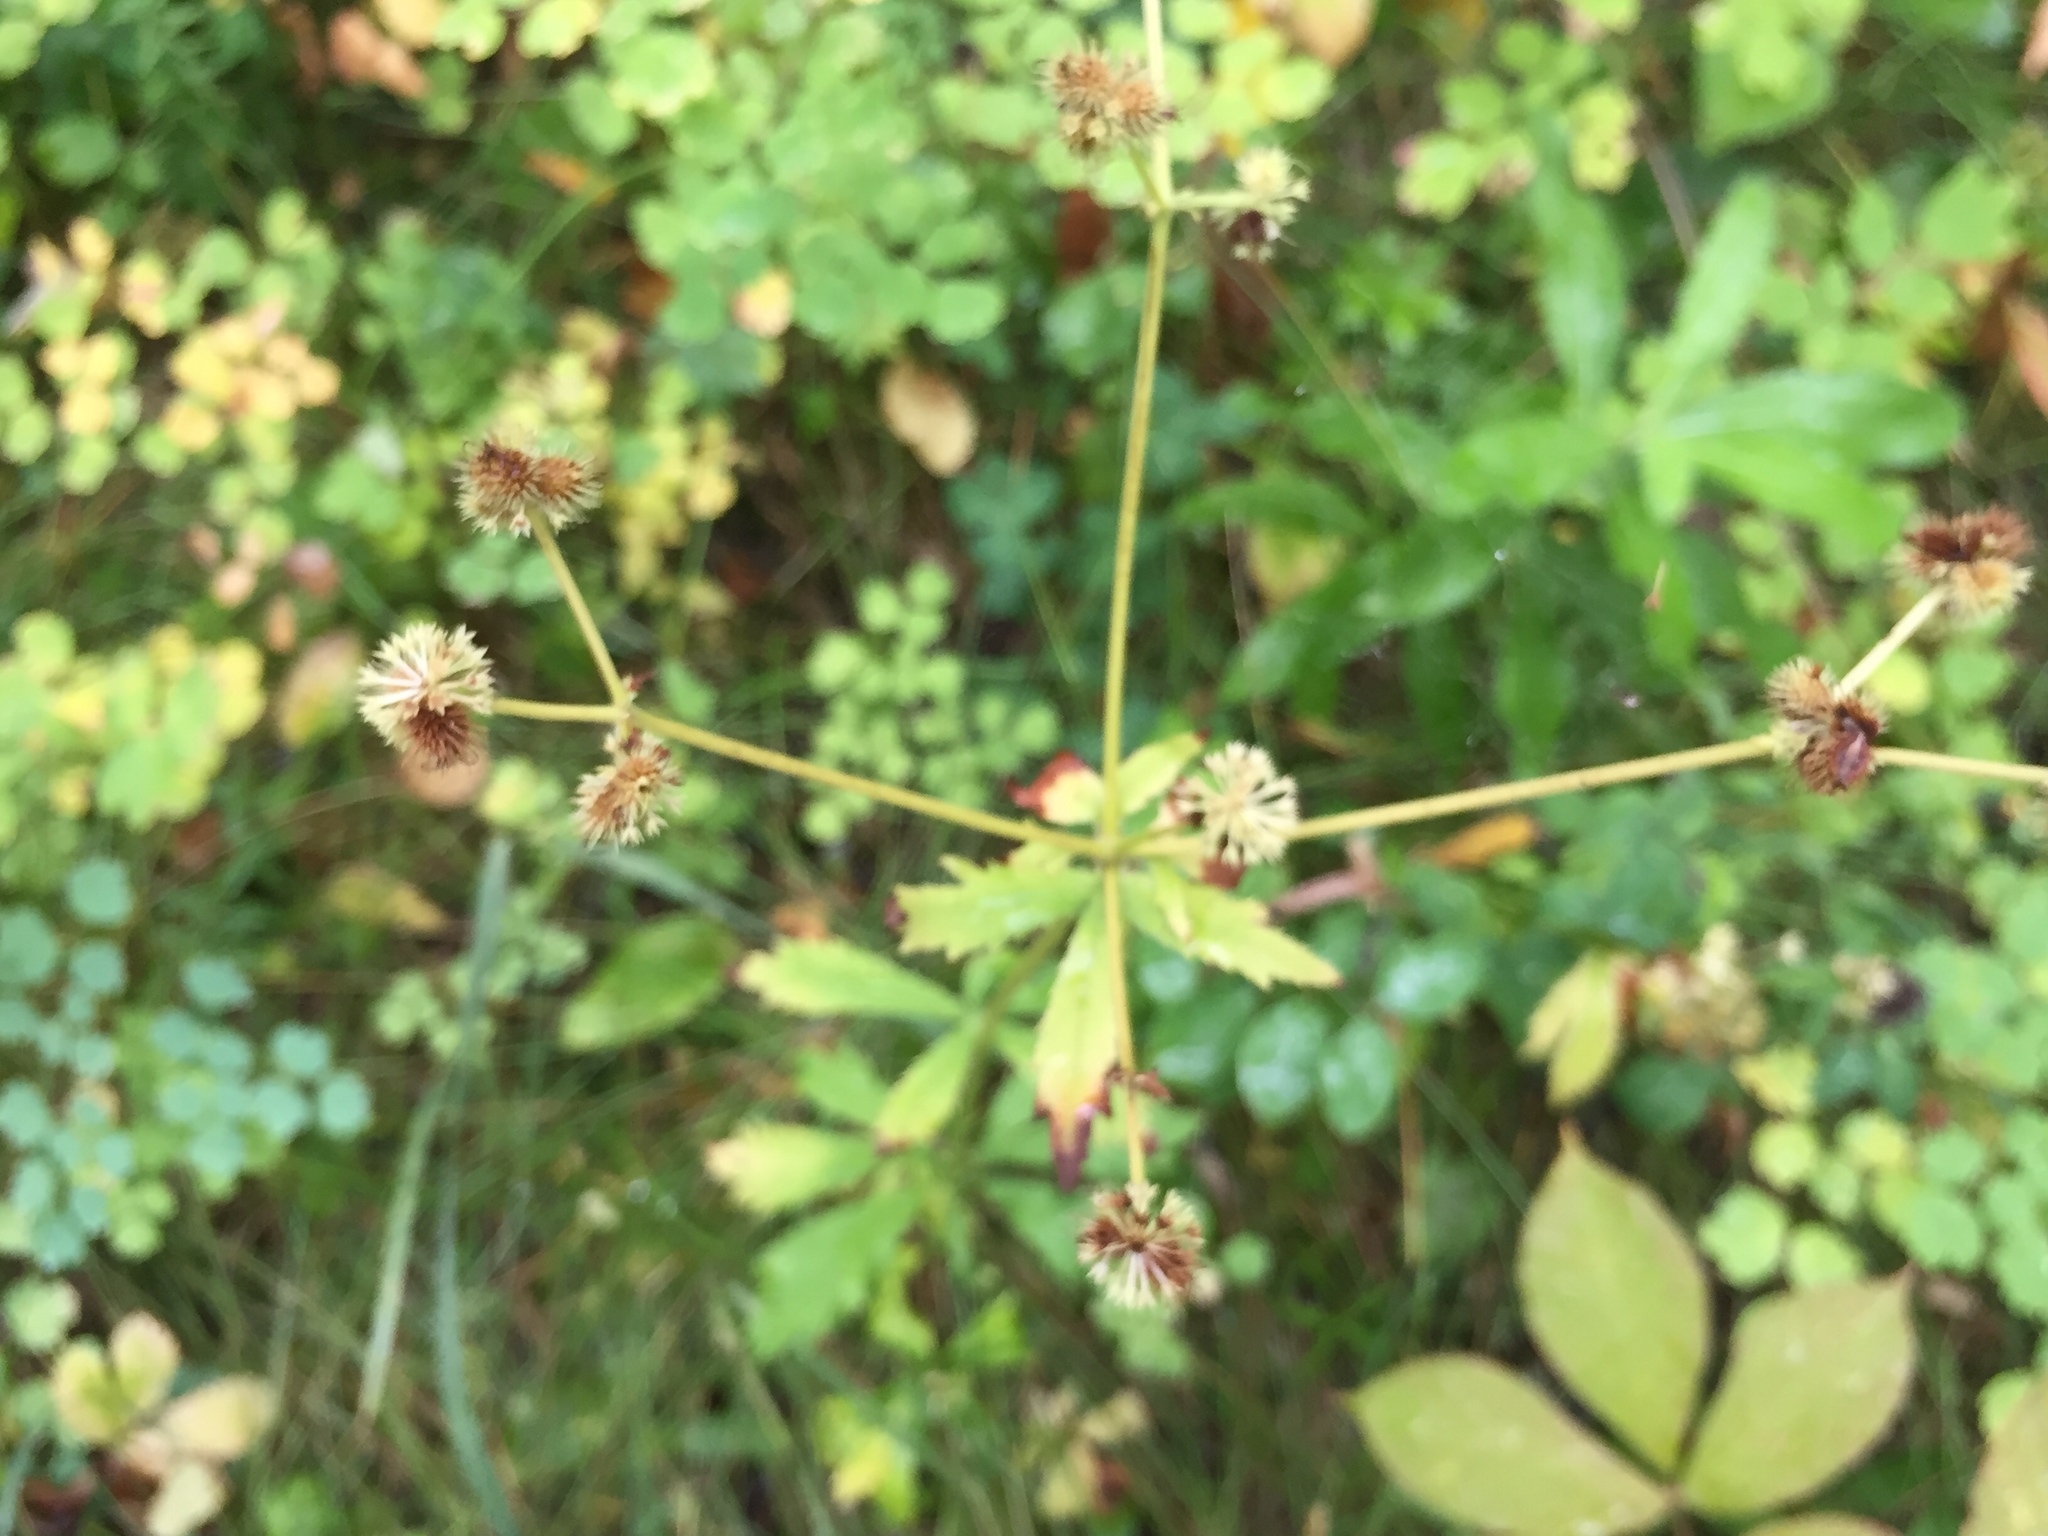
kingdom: Plantae
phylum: Tracheophyta
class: Magnoliopsida
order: Apiales
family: Apiaceae
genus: Sanicula
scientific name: Sanicula marilandica
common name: Black snakeroot
